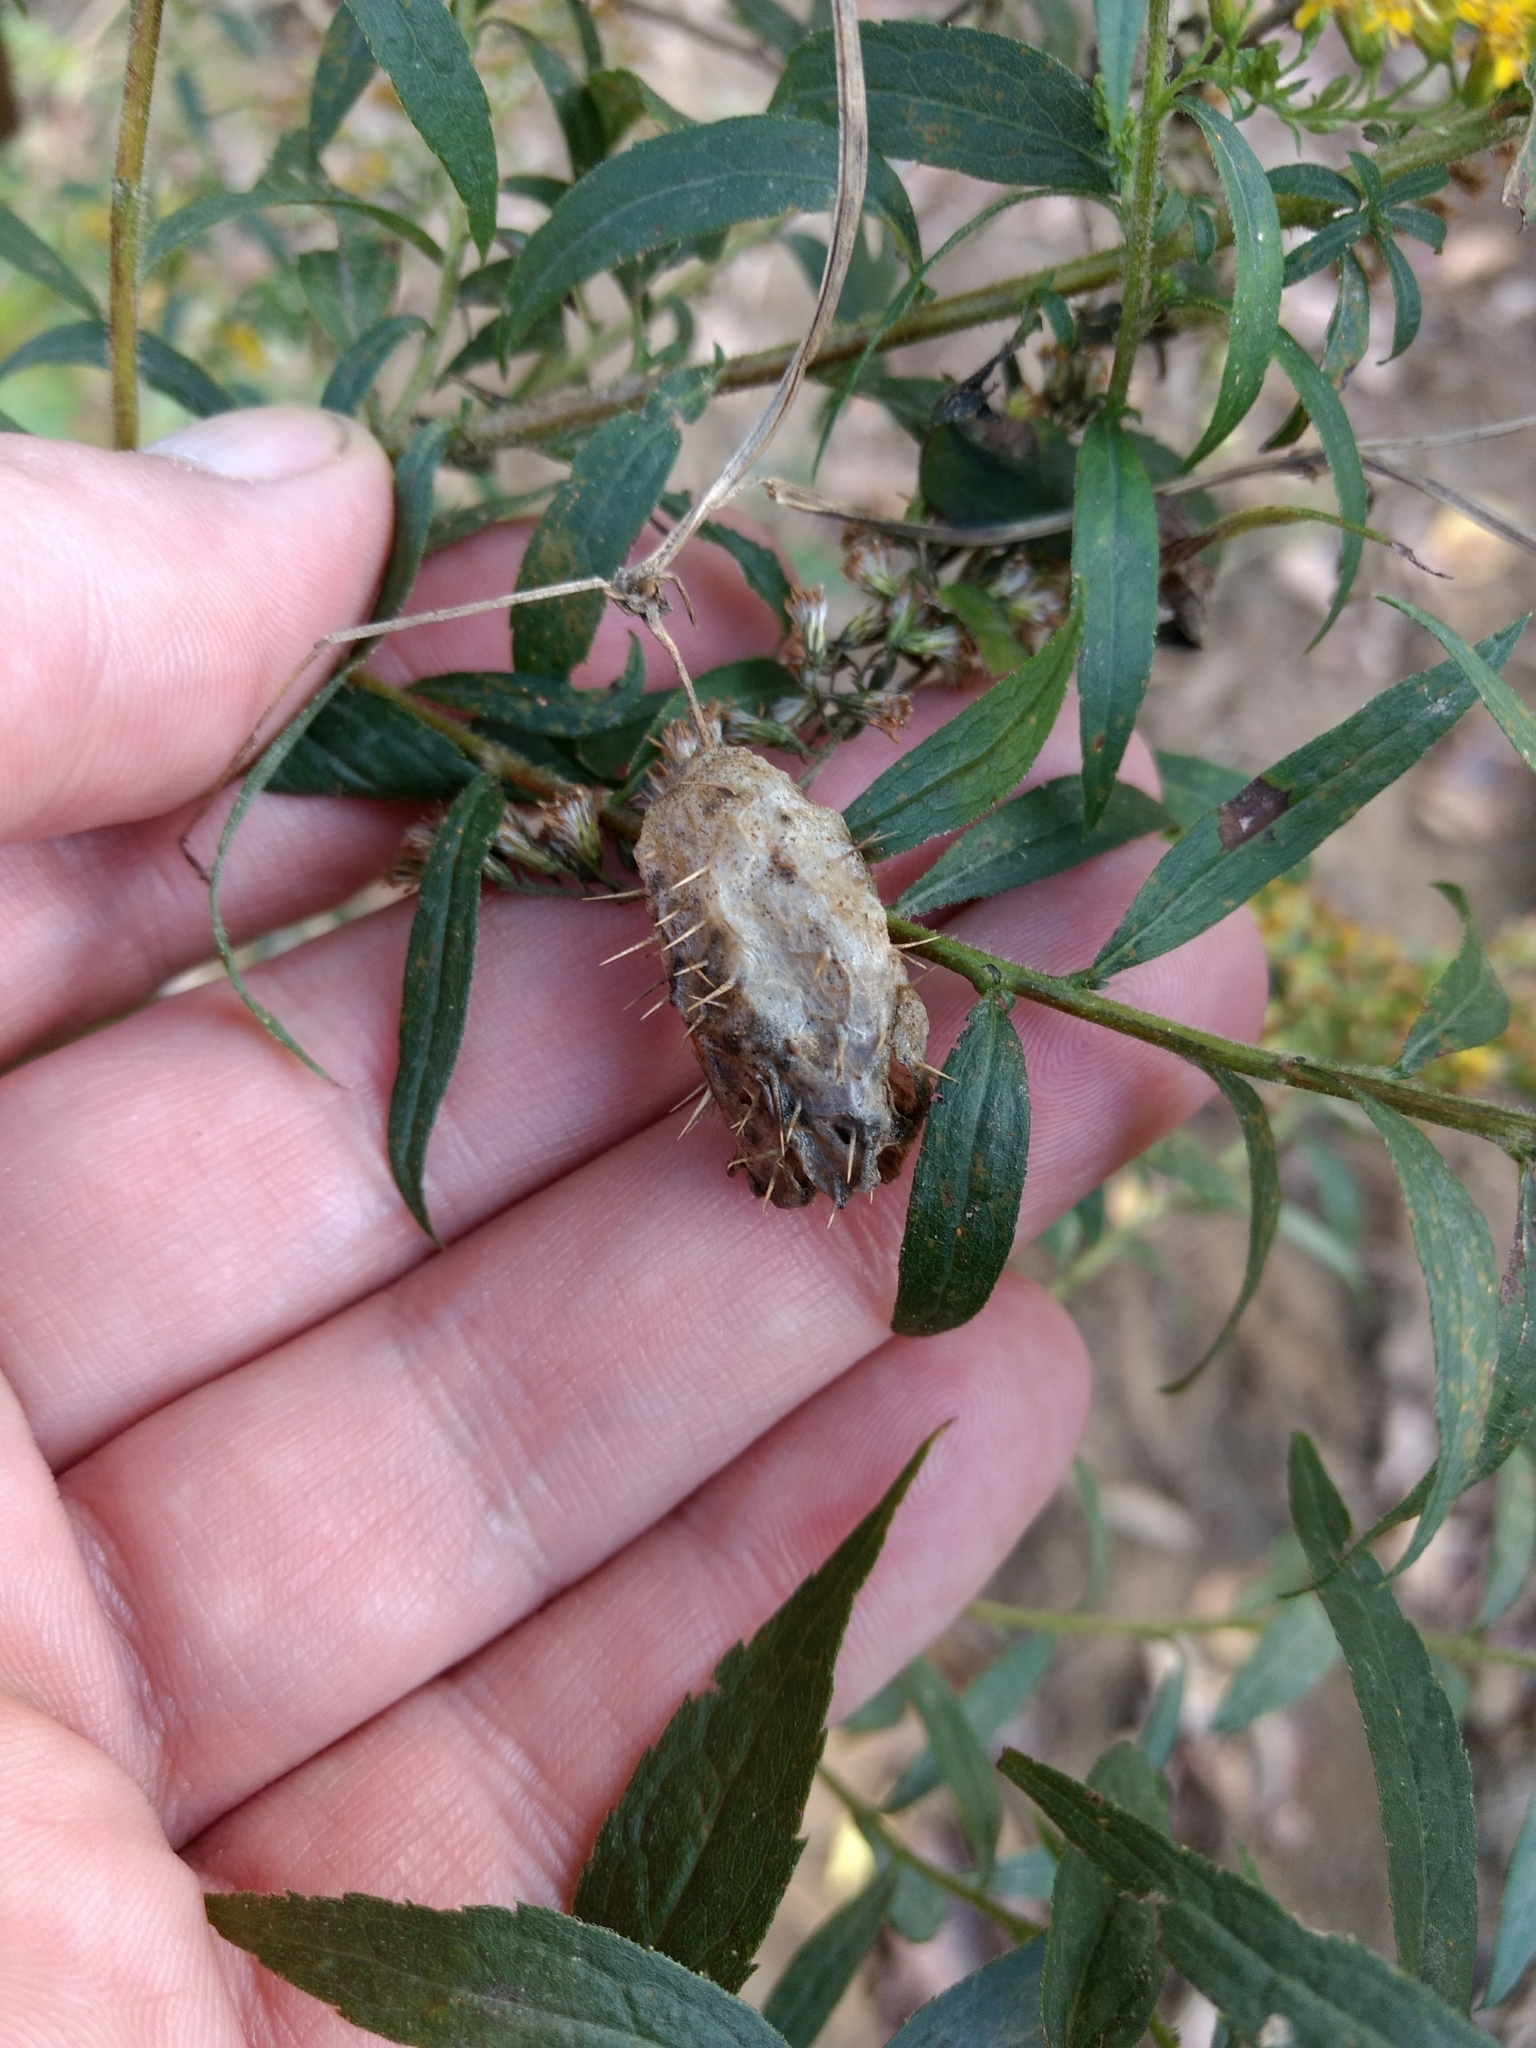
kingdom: Plantae
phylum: Tracheophyta
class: Magnoliopsida
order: Cucurbitales
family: Cucurbitaceae
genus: Echinocystis
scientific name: Echinocystis lobata
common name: Wild cucumber
